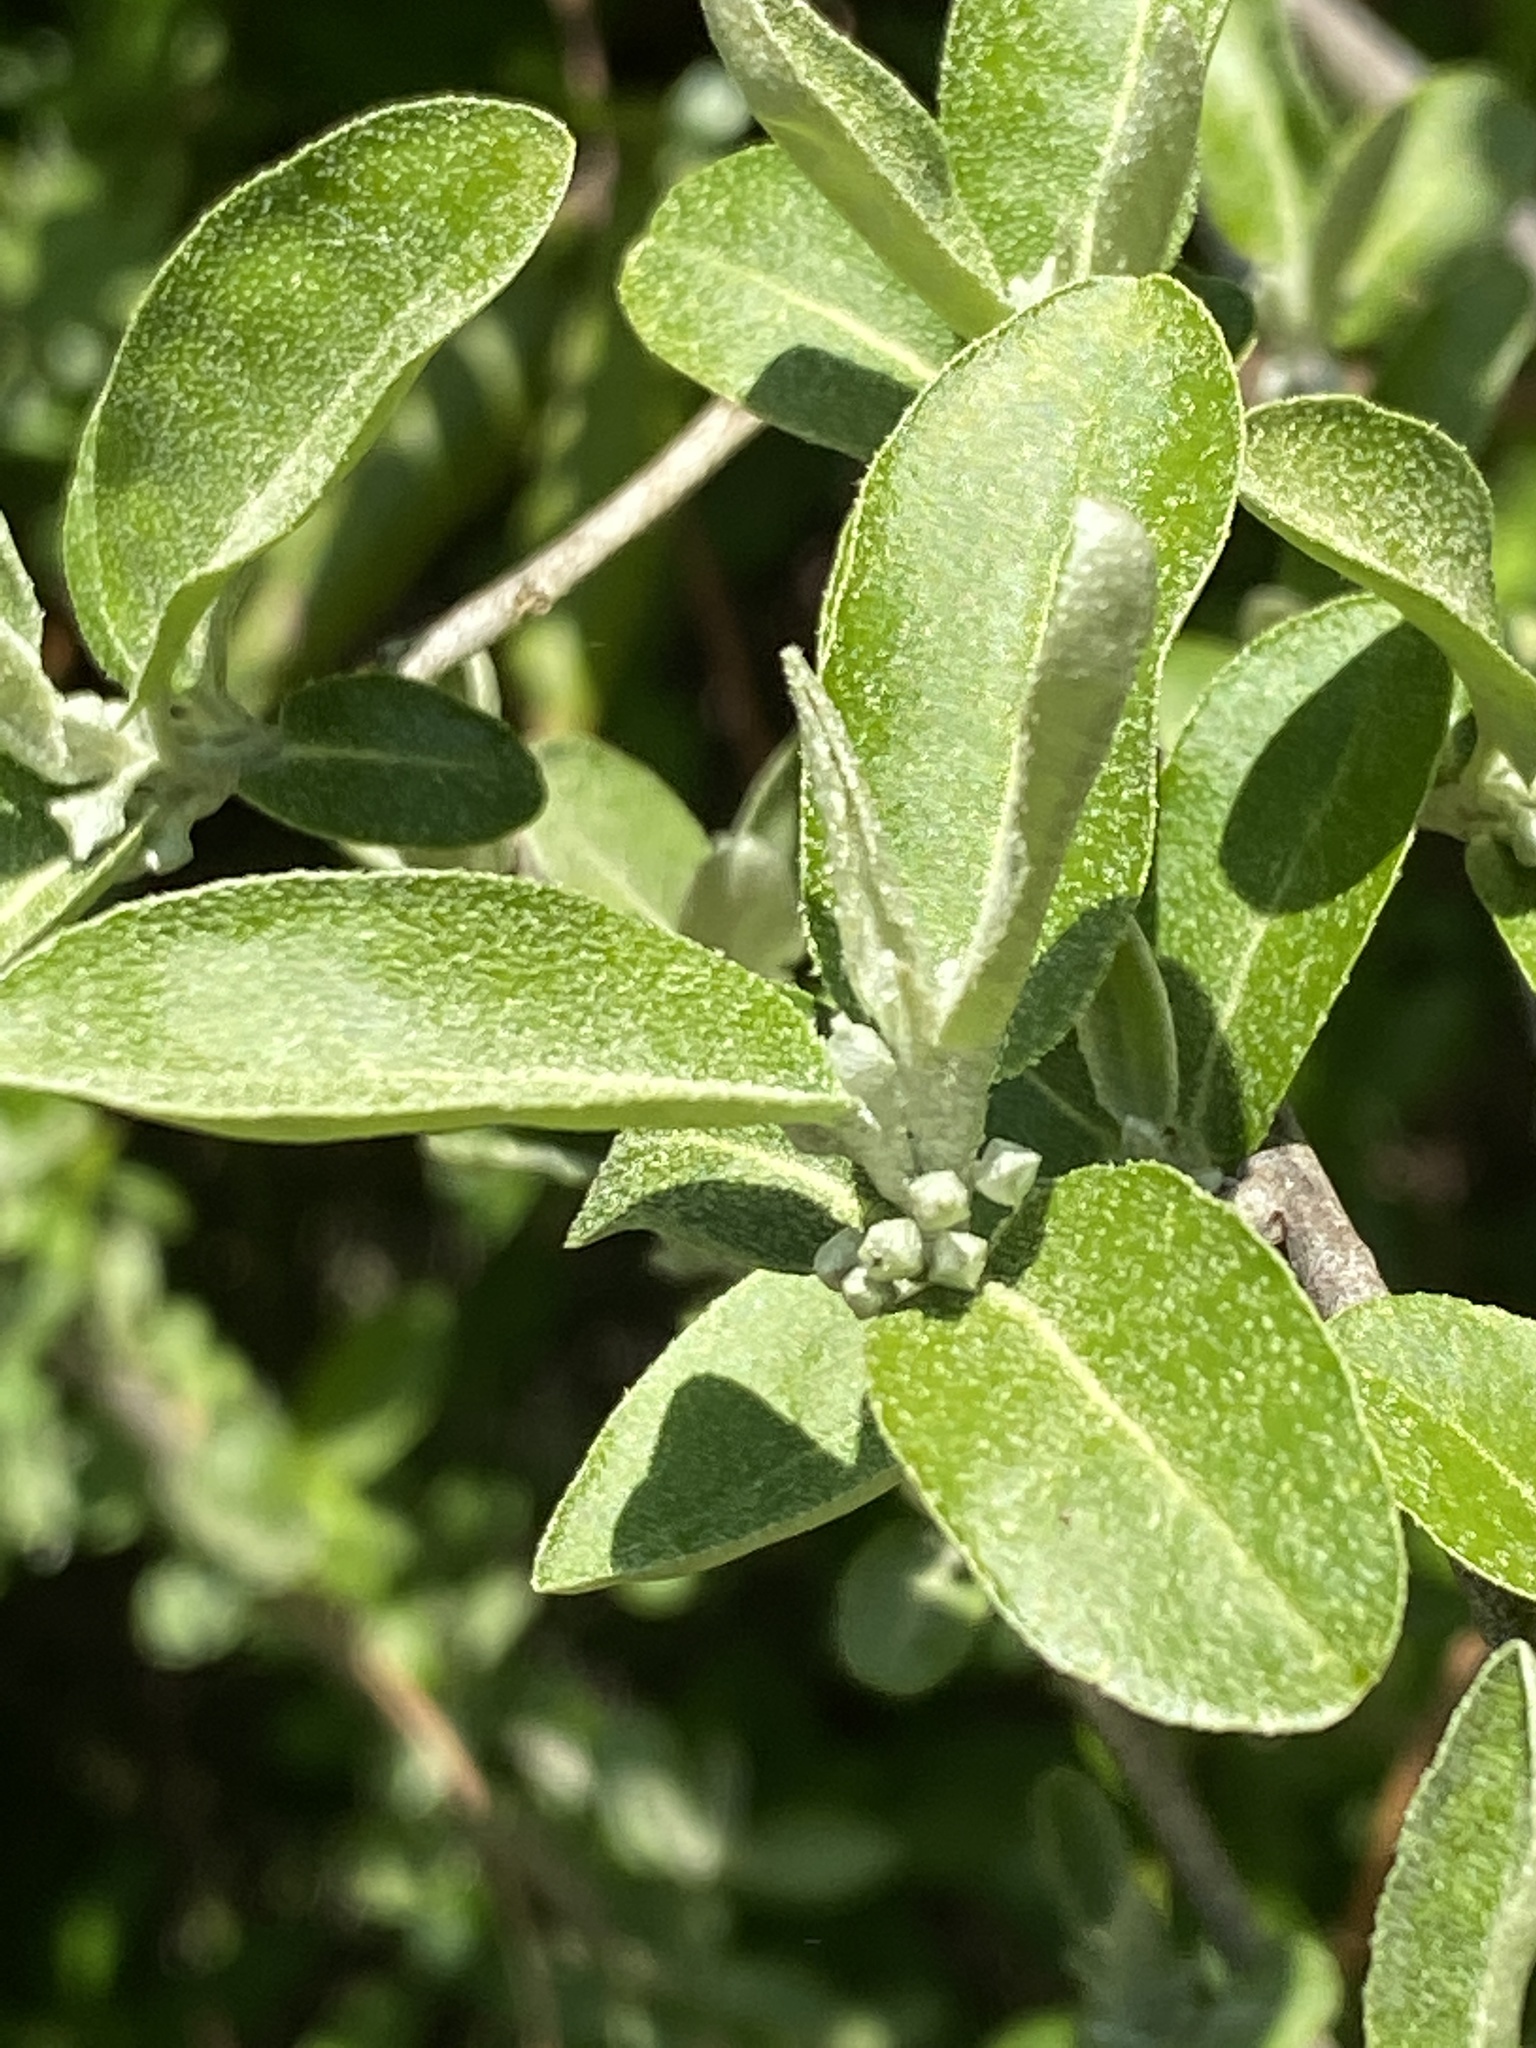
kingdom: Plantae
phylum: Tracheophyta
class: Magnoliopsida
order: Rosales
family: Elaeagnaceae
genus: Elaeagnus
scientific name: Elaeagnus umbellata
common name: Autumn olive
